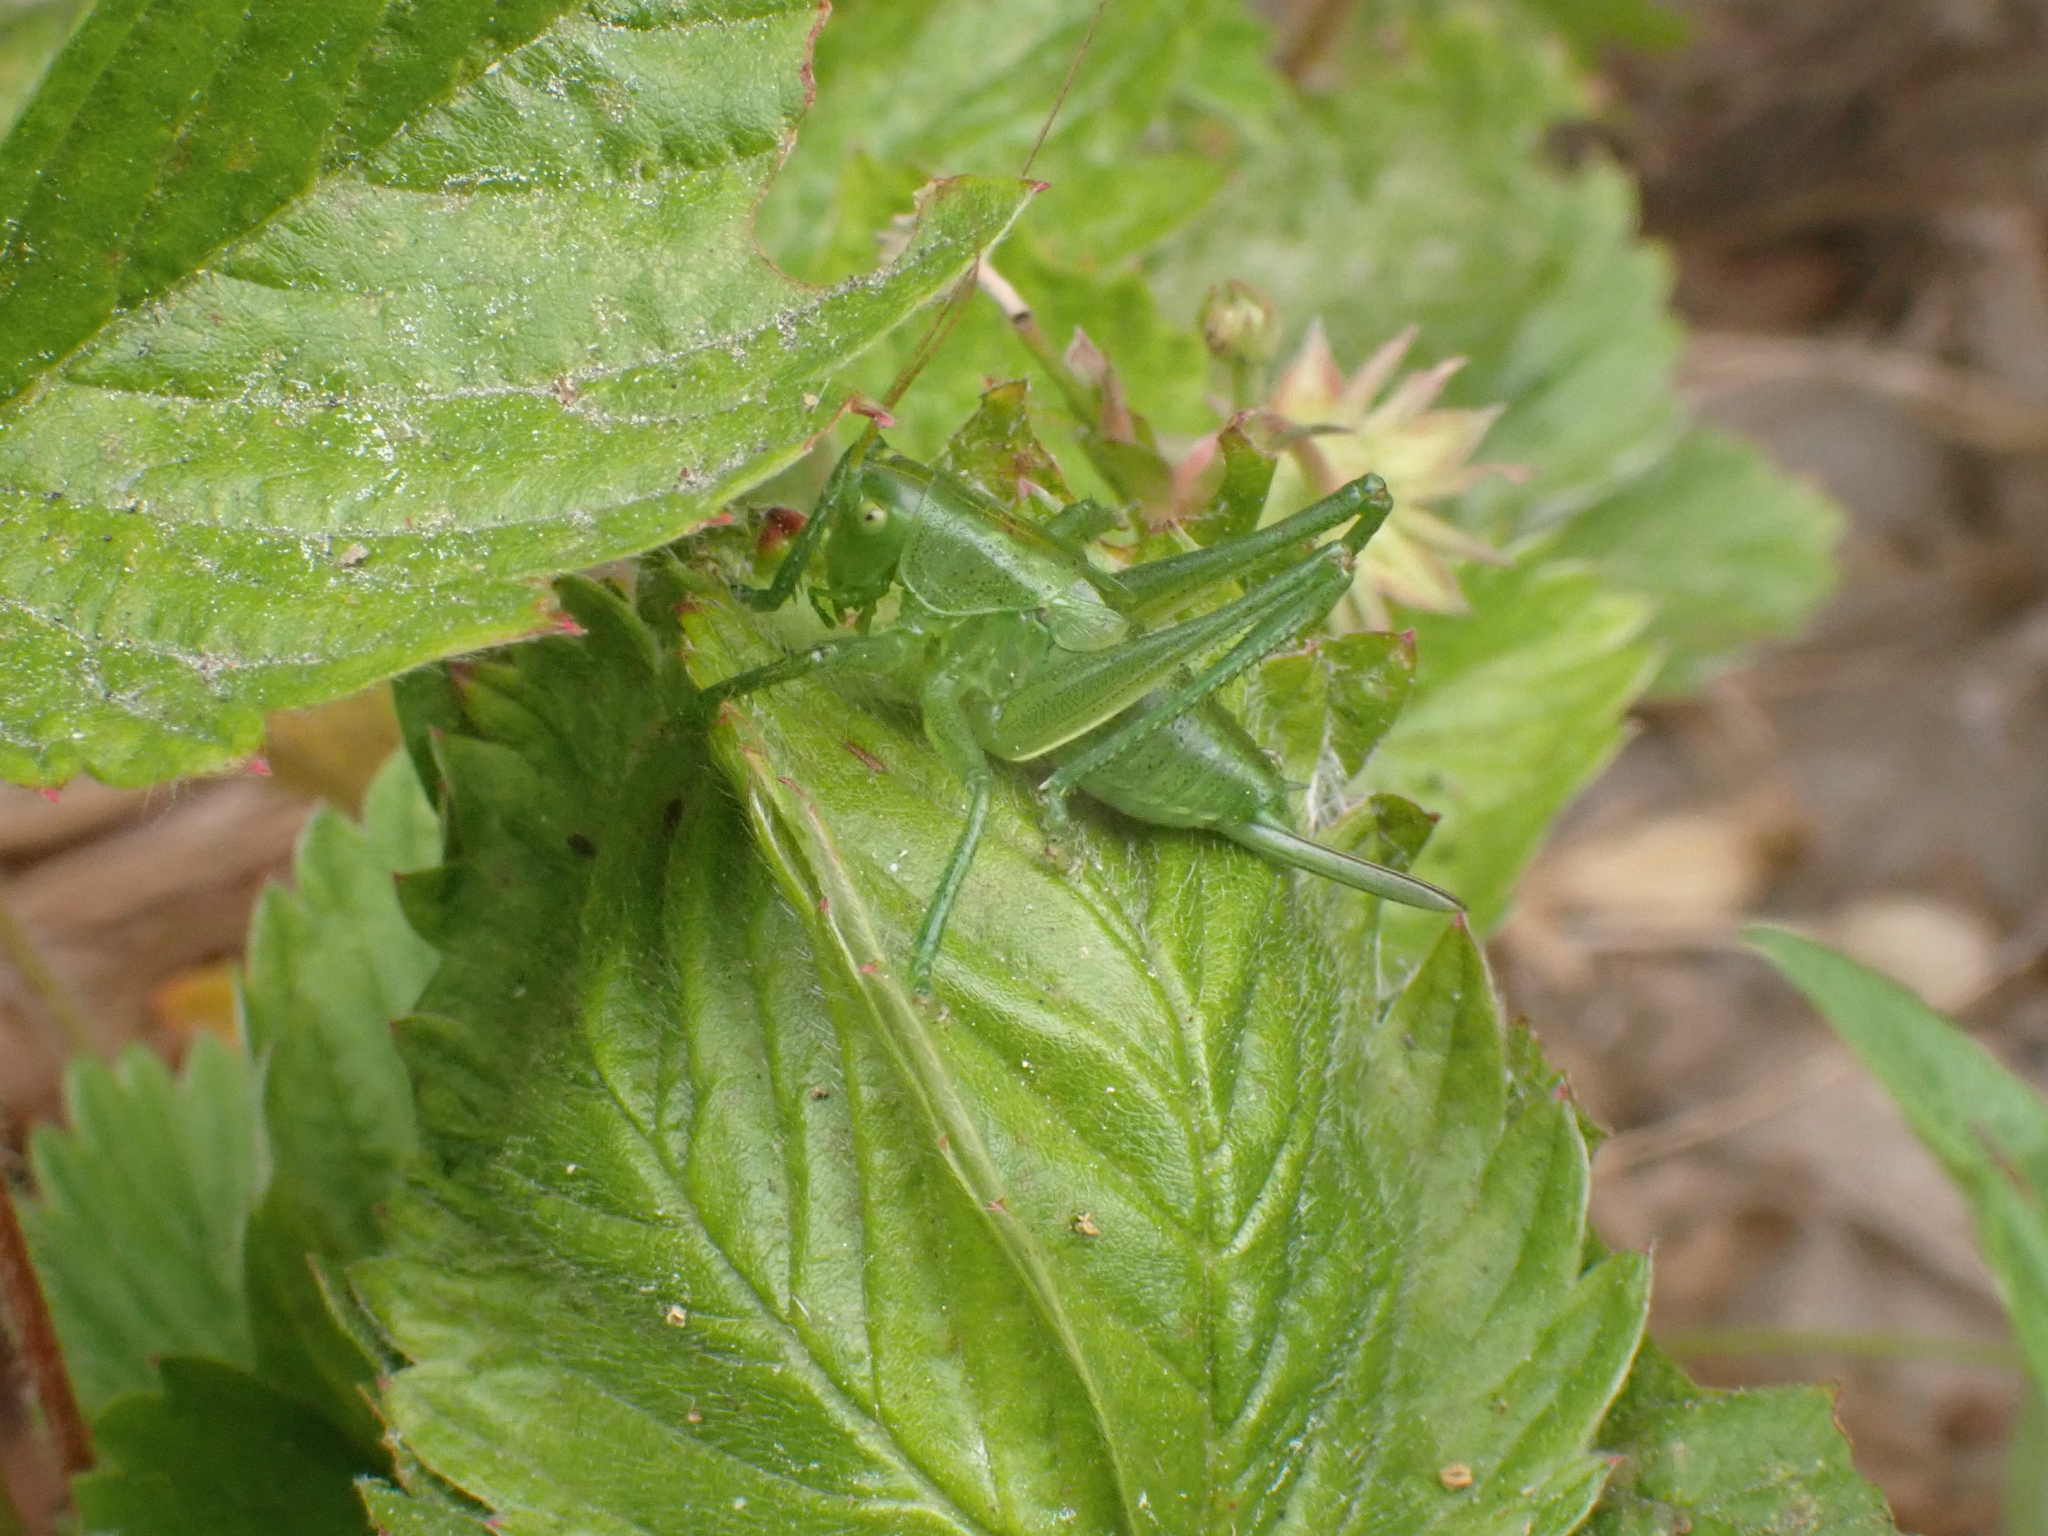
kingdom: Animalia
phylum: Arthropoda
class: Insecta
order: Orthoptera
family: Tettigoniidae
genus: Tettigonia
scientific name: Tettigonia cantans
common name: Upland green bush-cricket
